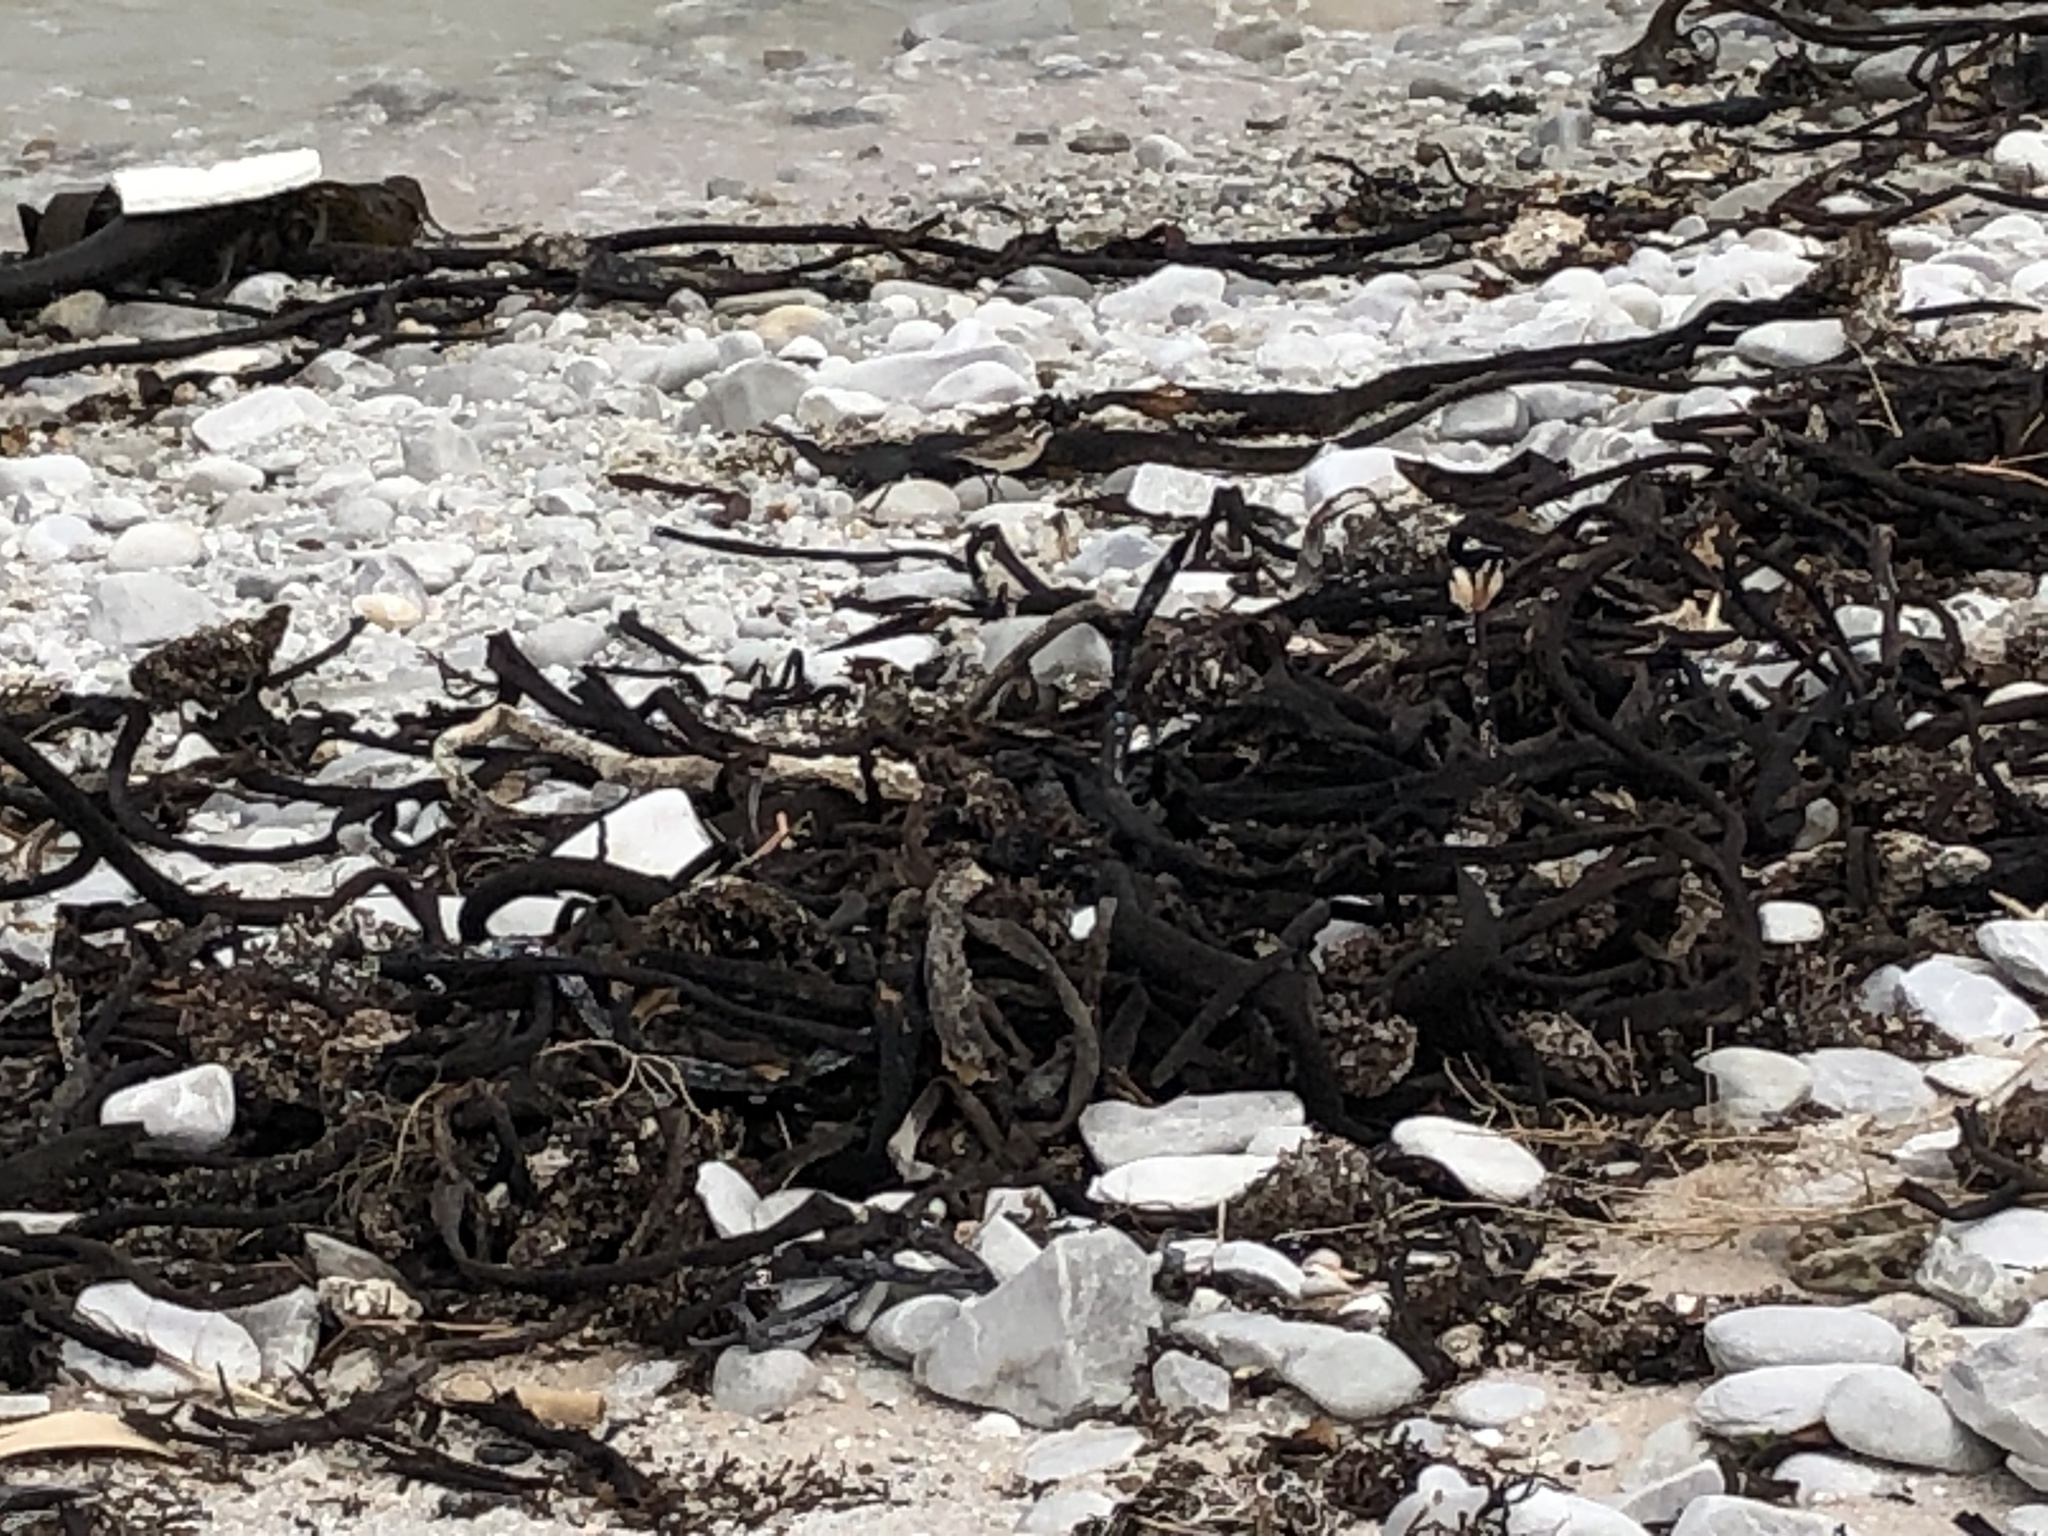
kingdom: Animalia
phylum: Chordata
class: Aves
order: Charadriiformes
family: Charadriidae
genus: Anarhynchus
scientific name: Anarhynchus
